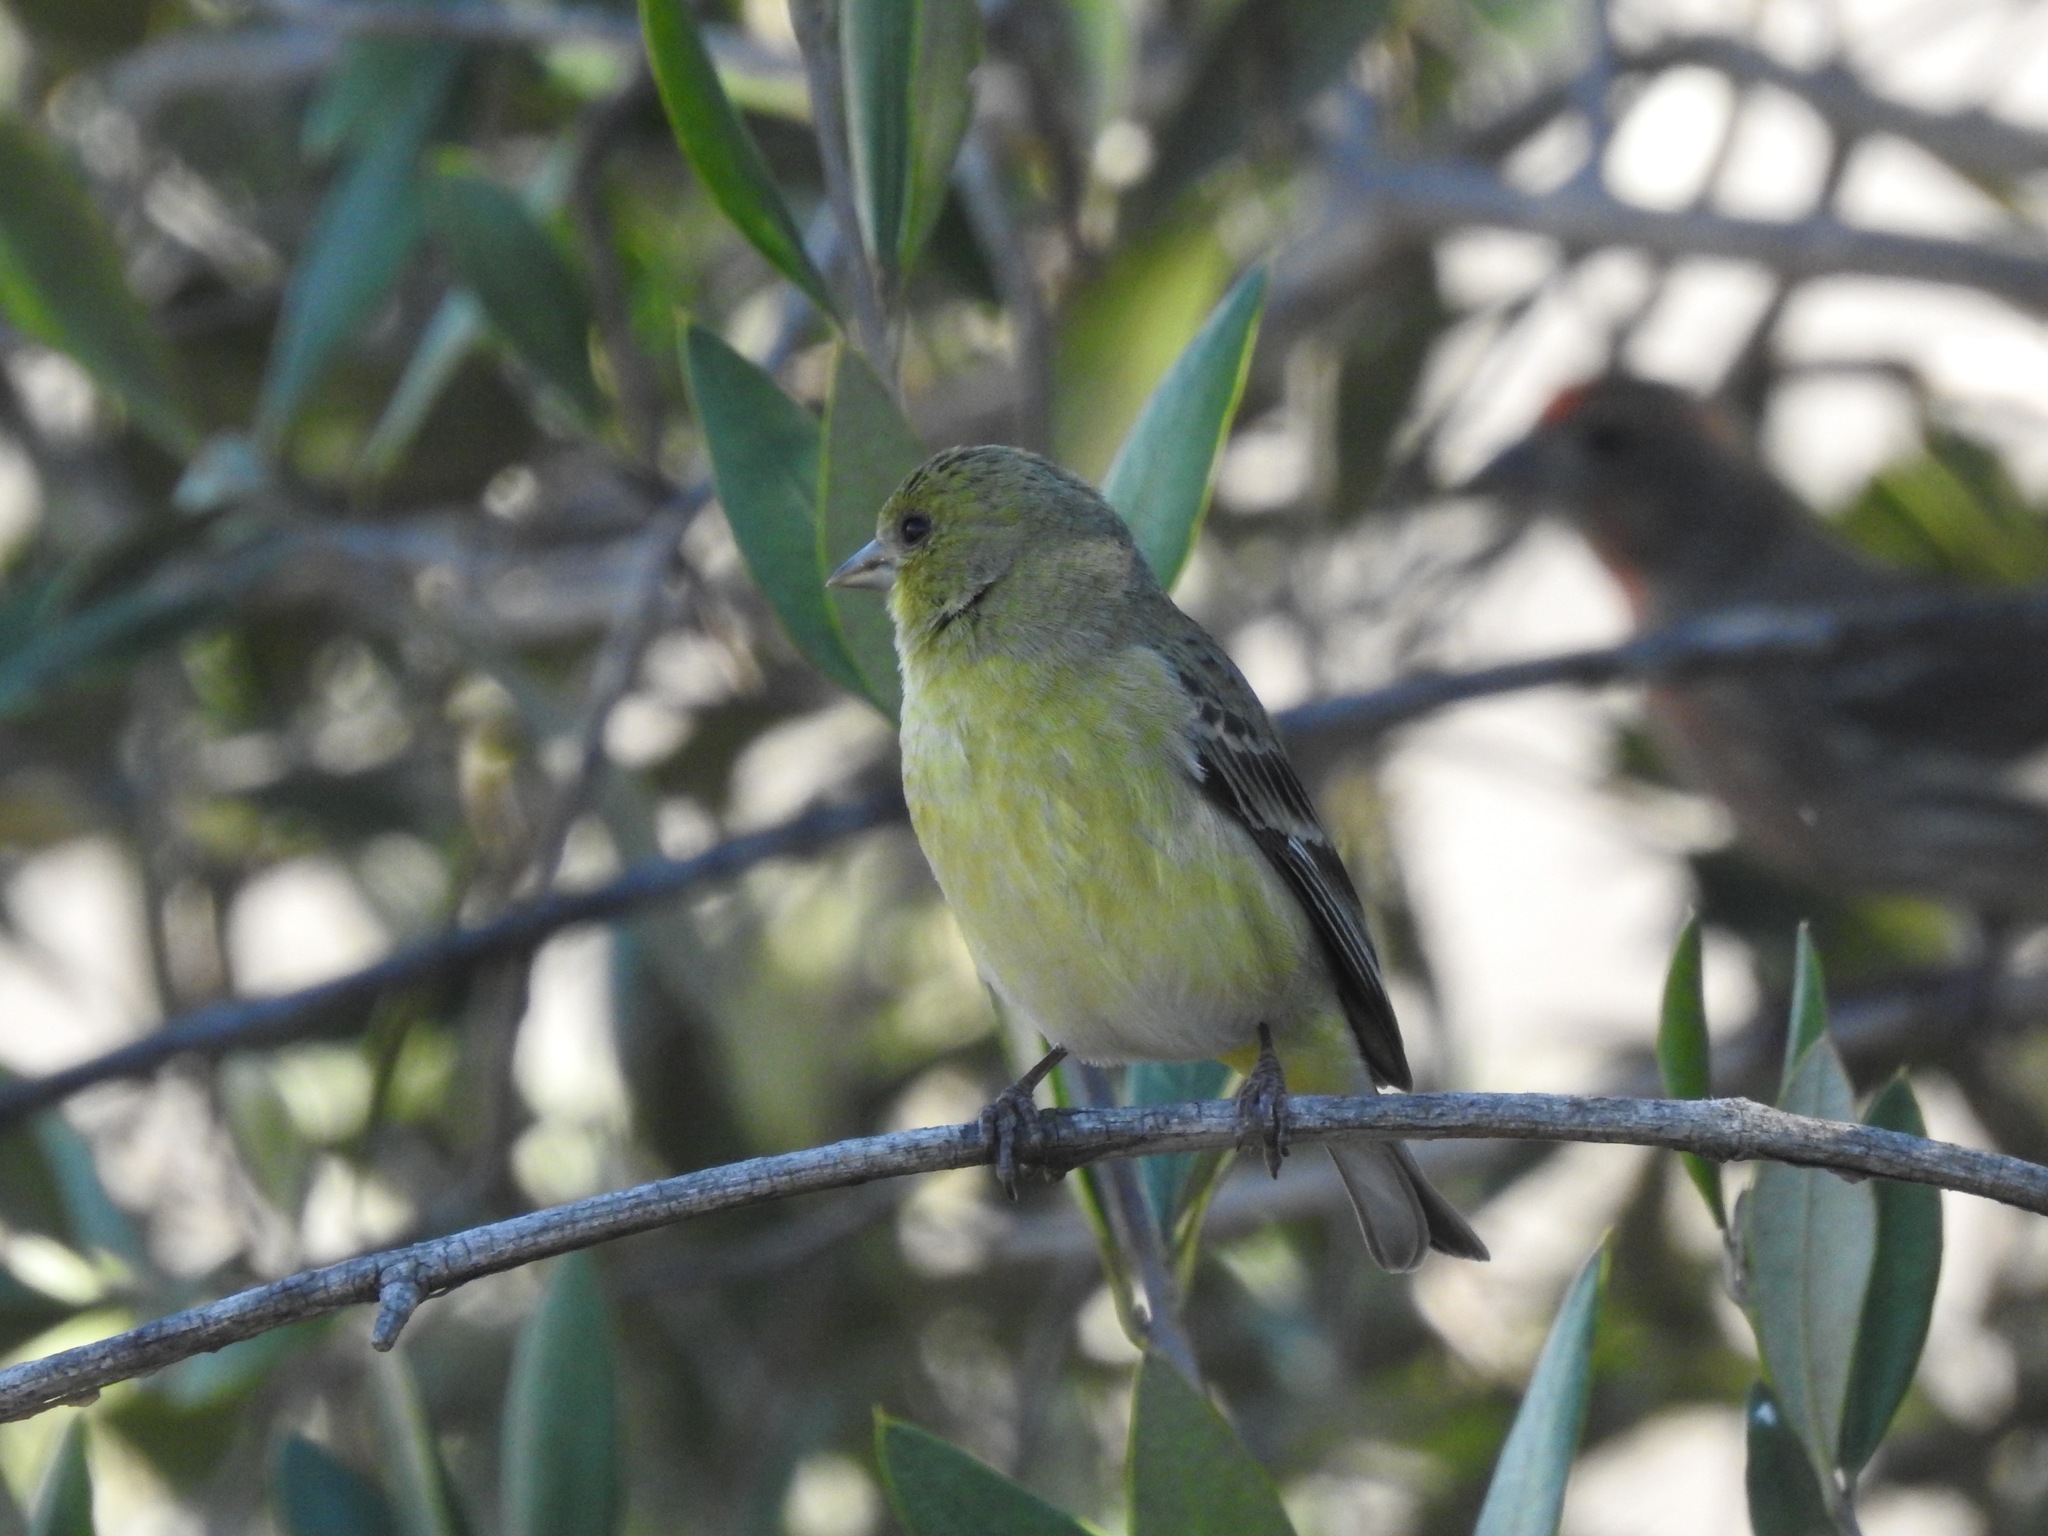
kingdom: Animalia
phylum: Chordata
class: Aves
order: Passeriformes
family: Fringillidae
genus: Spinus
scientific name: Spinus psaltria
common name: Lesser goldfinch
